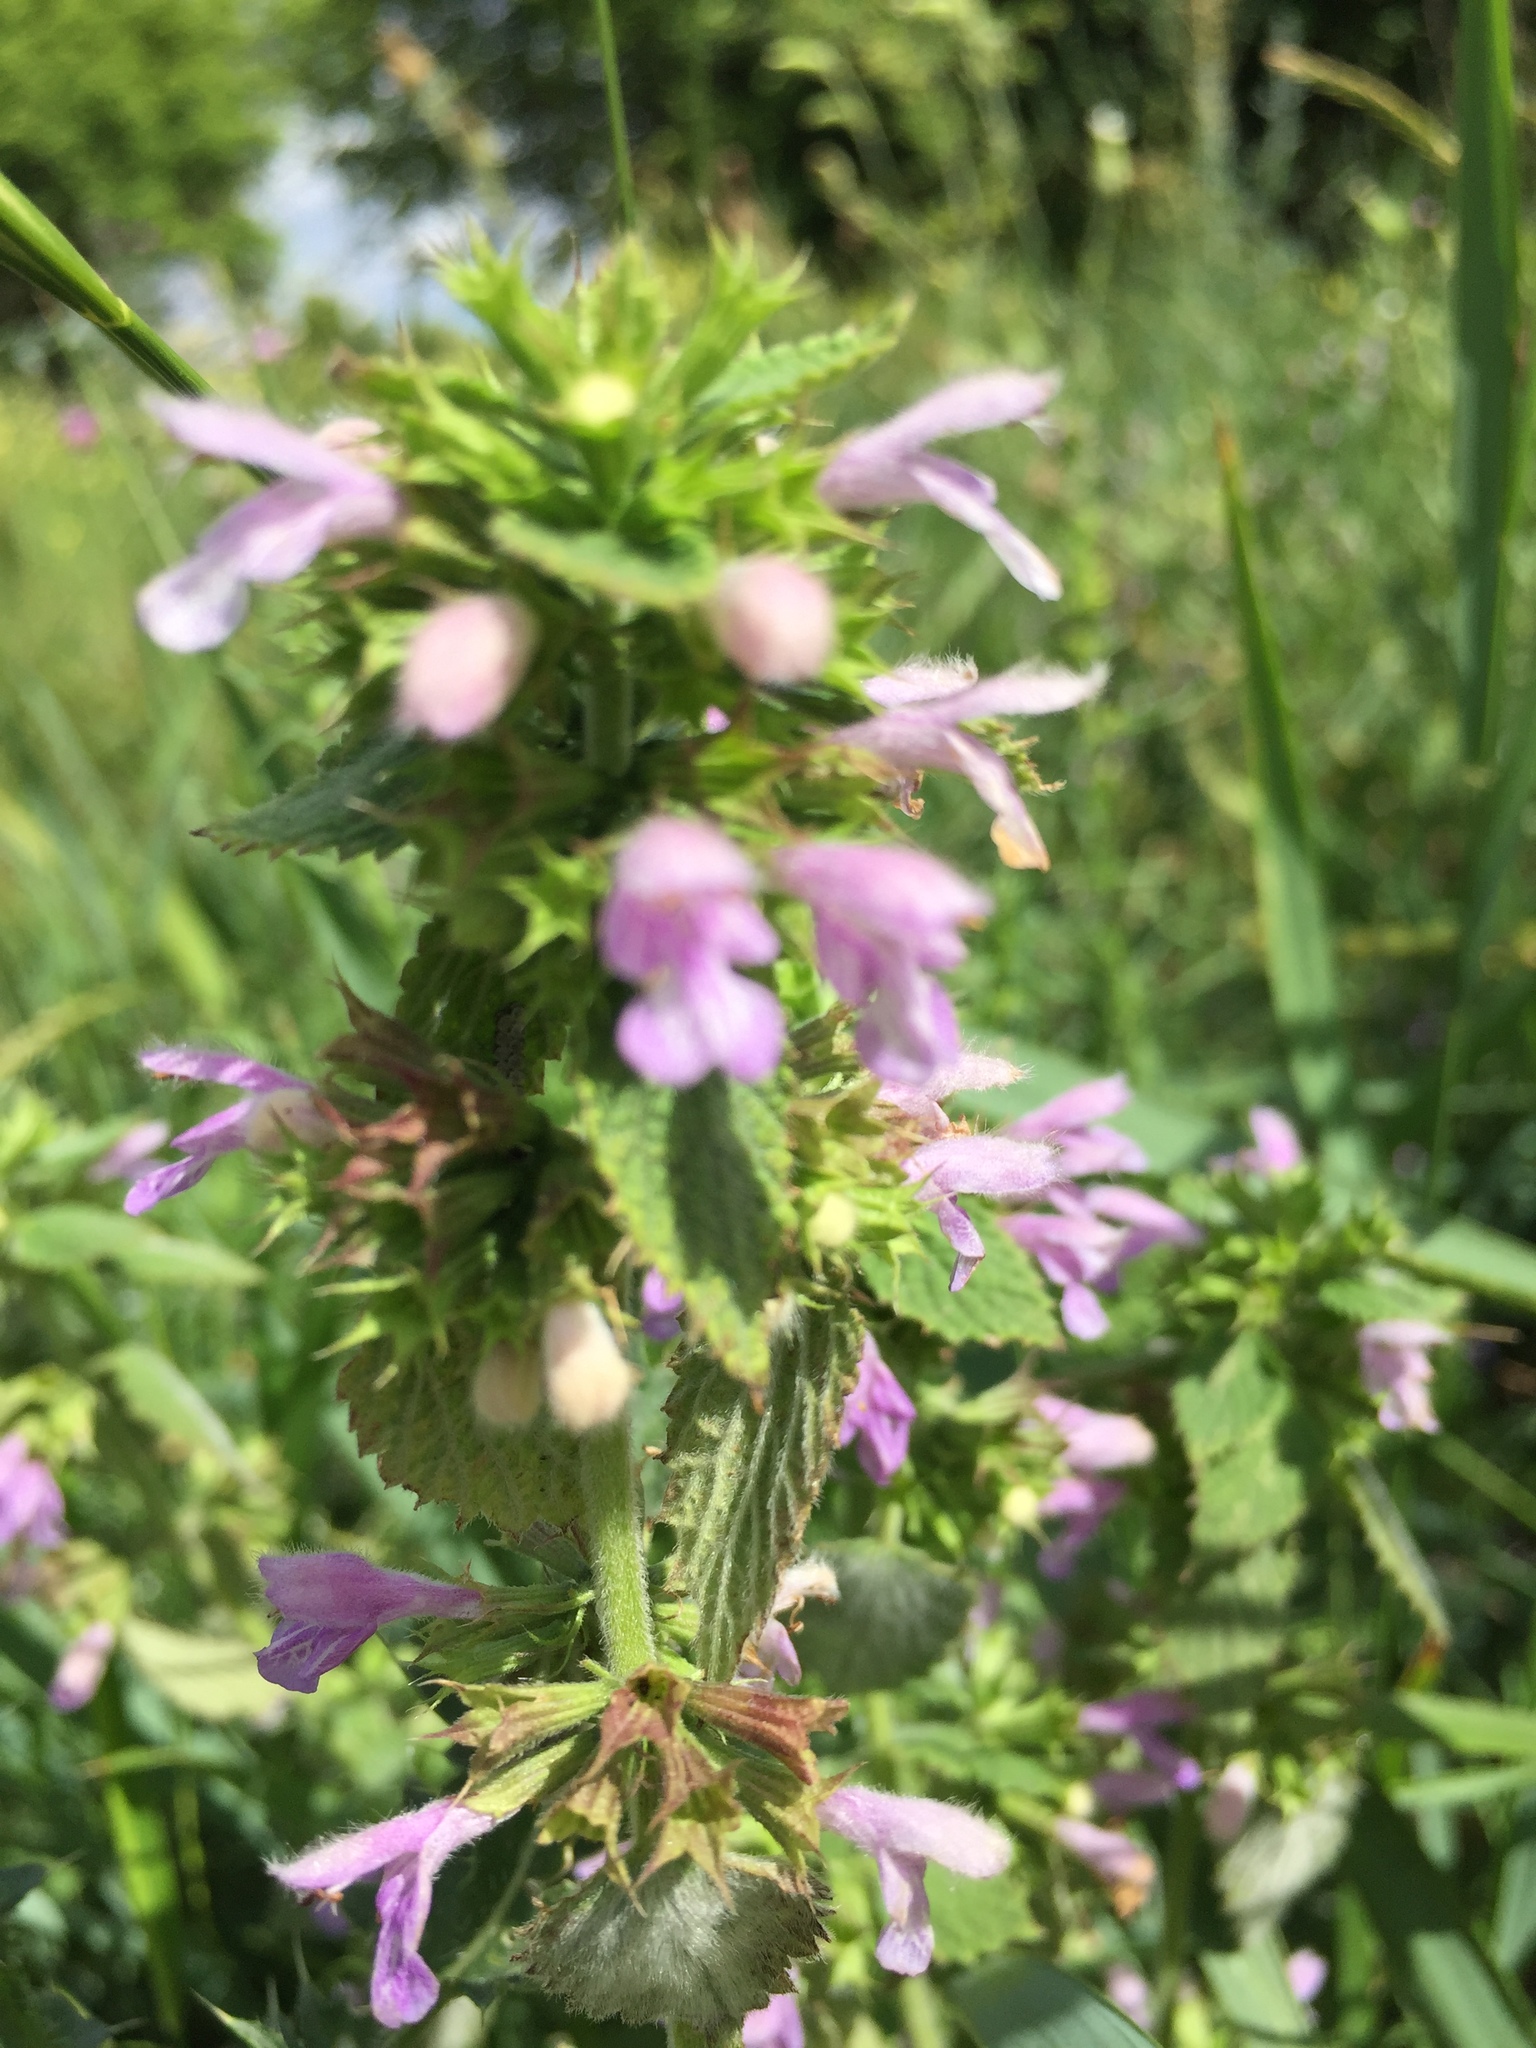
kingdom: Plantae
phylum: Tracheophyta
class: Magnoliopsida
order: Lamiales
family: Lamiaceae
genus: Ballota
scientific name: Ballota nigra
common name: Black horehound
